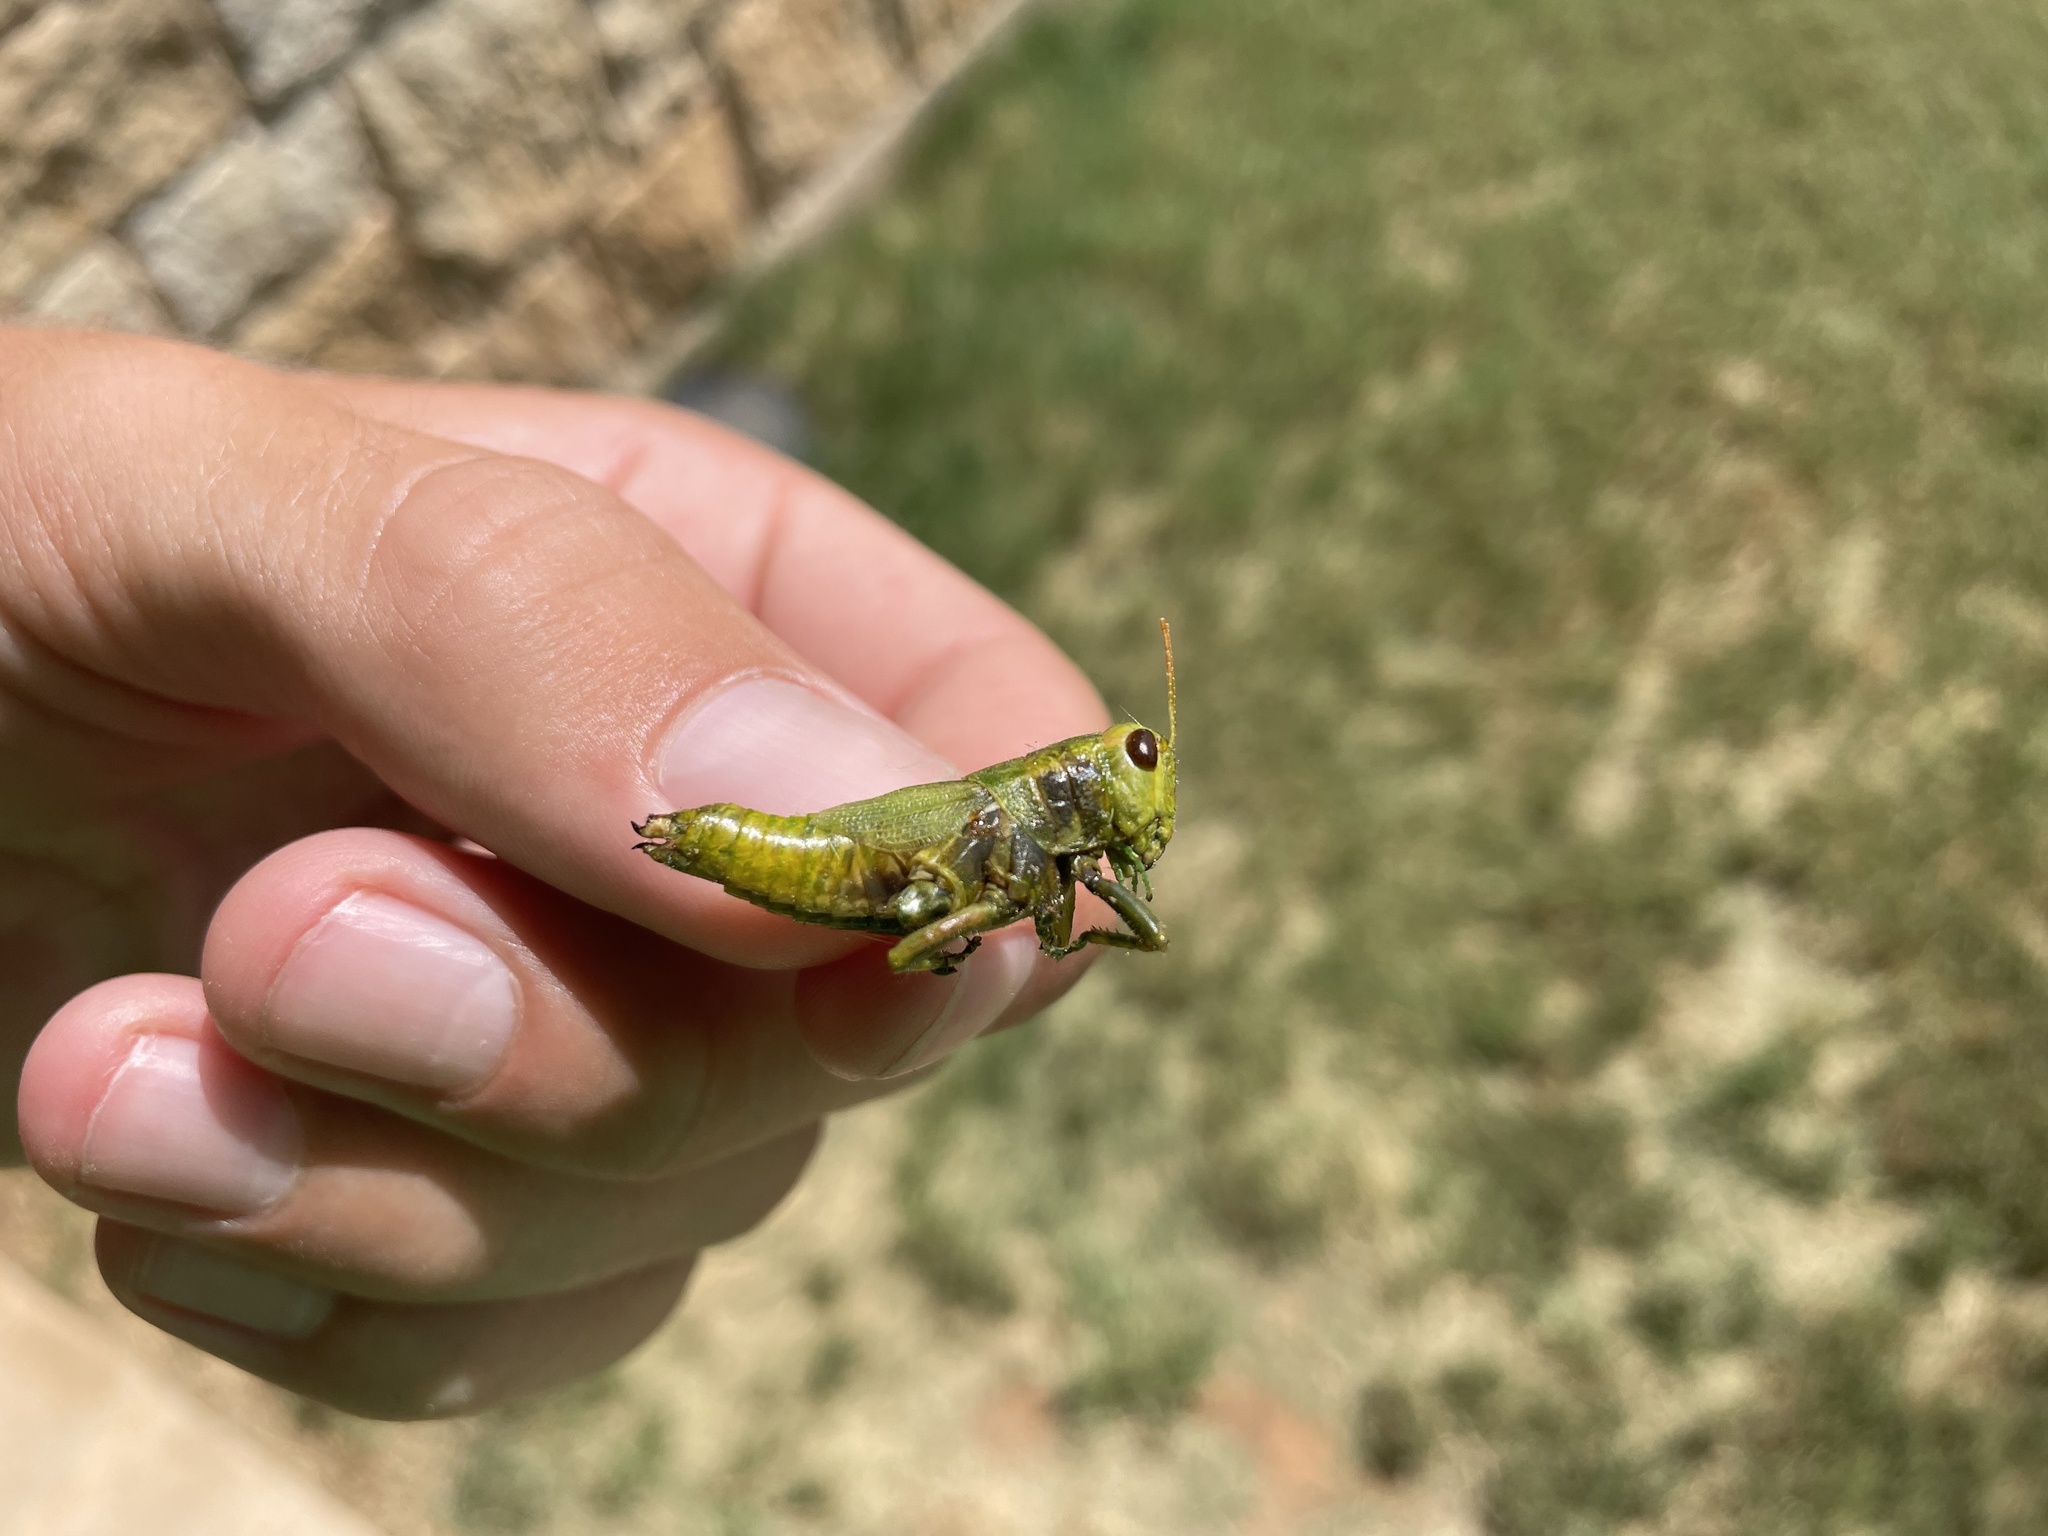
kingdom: Animalia
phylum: Arthropoda
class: Insecta
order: Orthoptera
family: Acrididae
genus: Campylacantha
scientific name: Campylacantha olivacea
